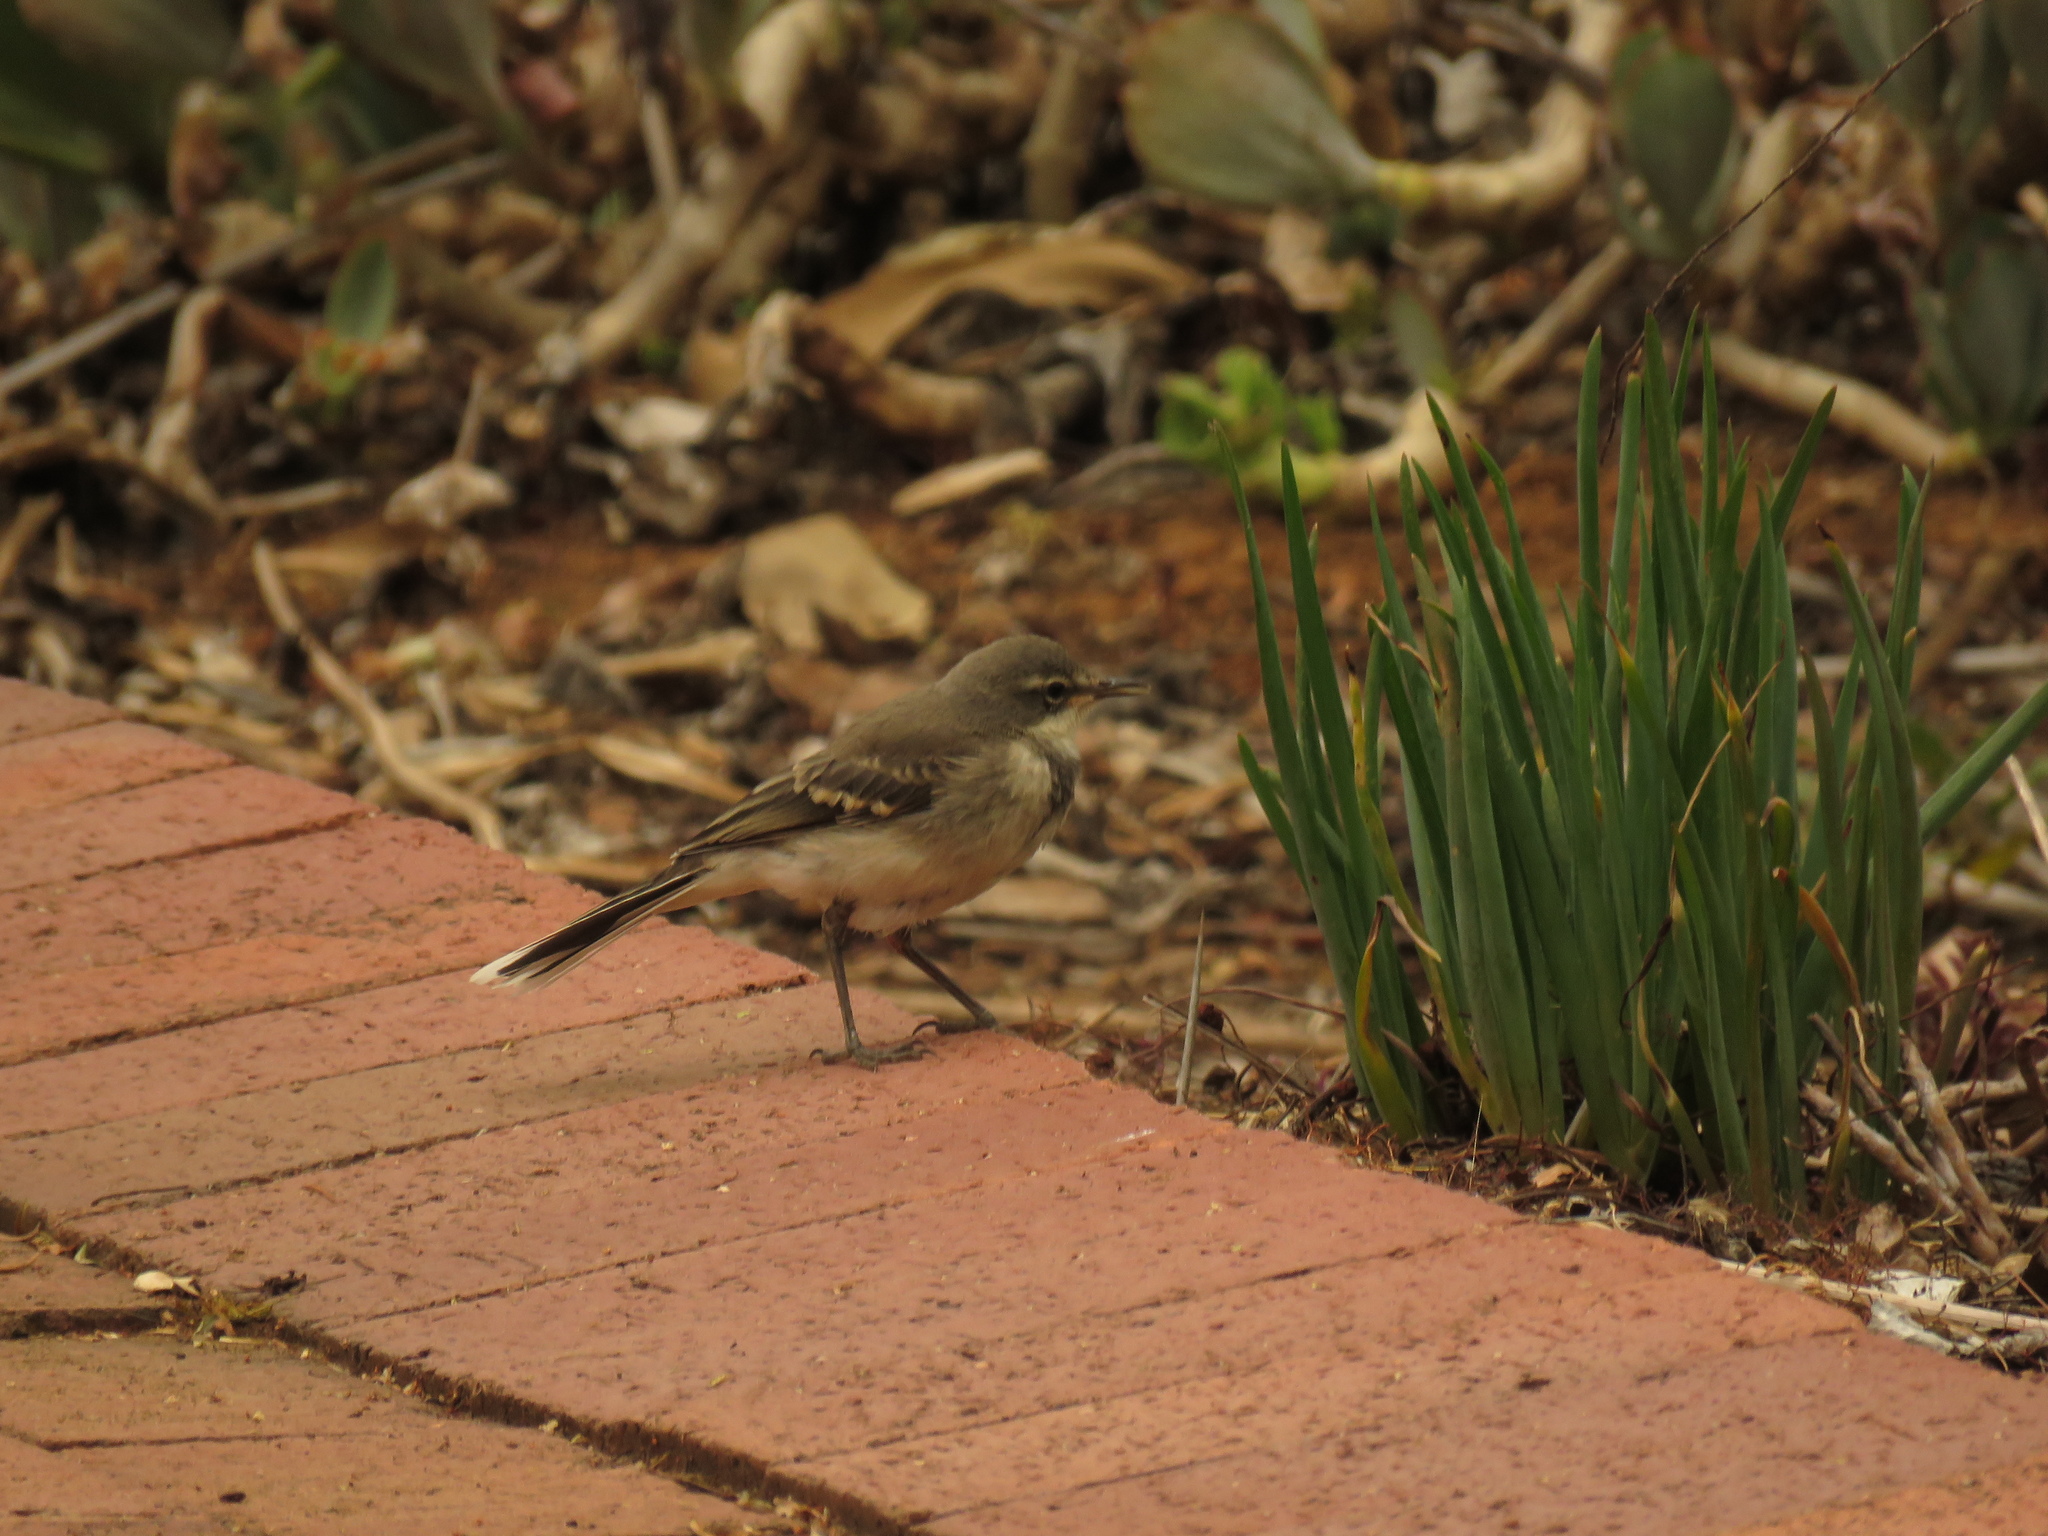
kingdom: Animalia
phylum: Chordata
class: Aves
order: Passeriformes
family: Motacillidae
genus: Motacilla
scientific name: Motacilla capensis
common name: Cape wagtail
